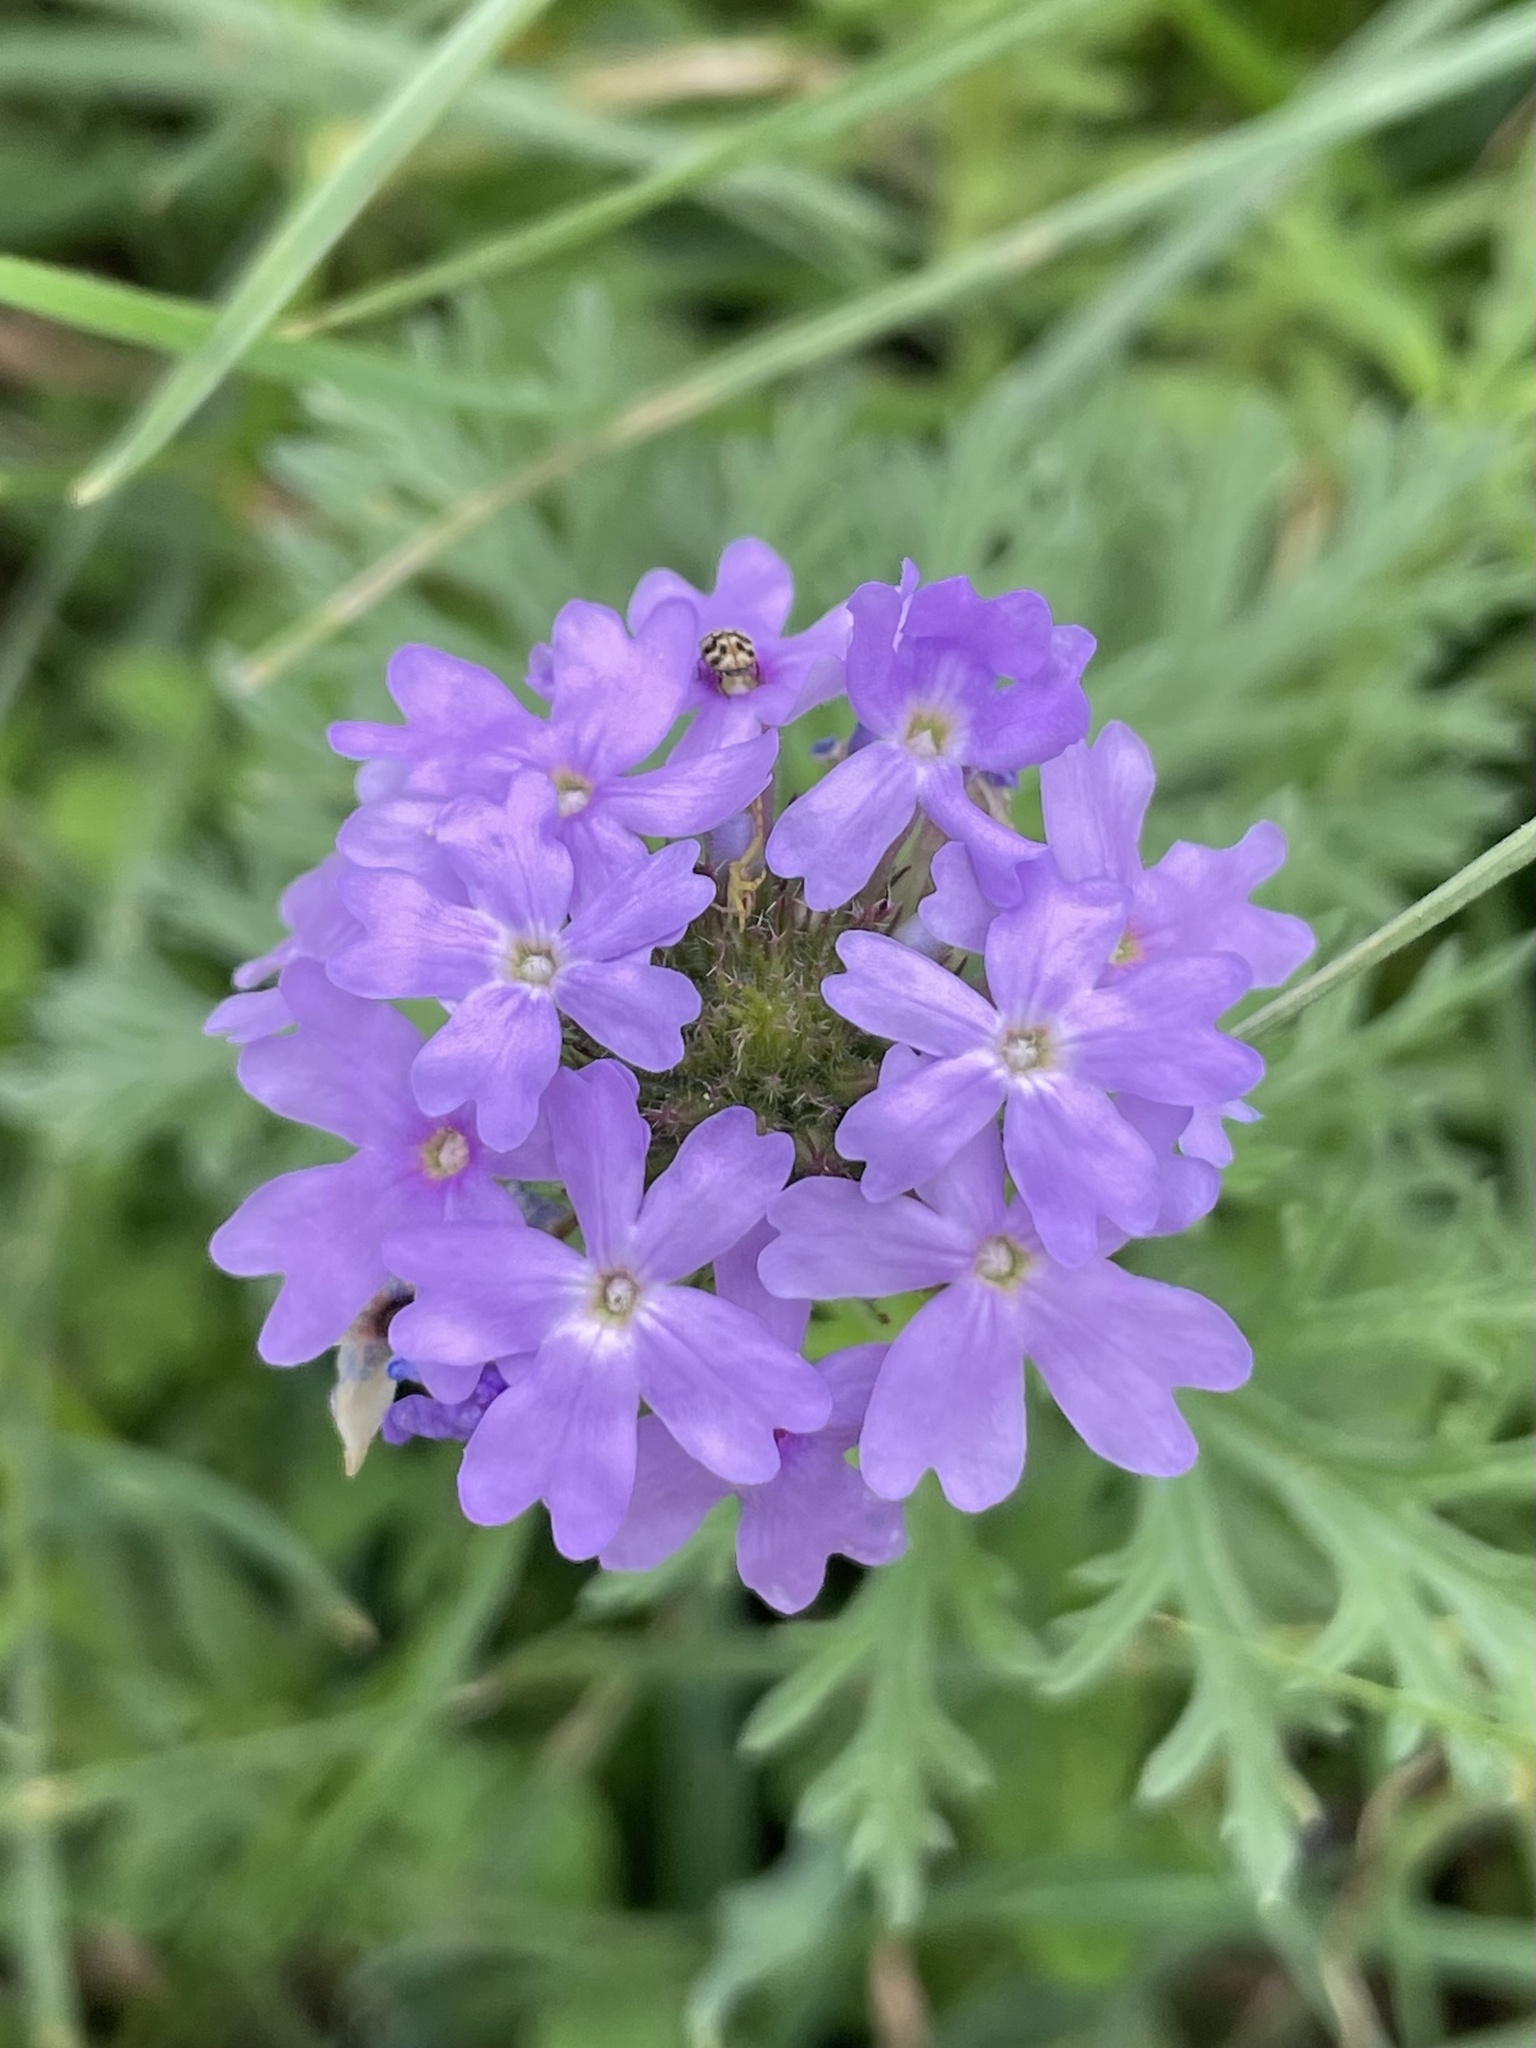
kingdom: Plantae
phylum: Tracheophyta
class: Magnoliopsida
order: Lamiales
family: Verbenaceae
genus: Verbena
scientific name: Verbena bipinnatifida
